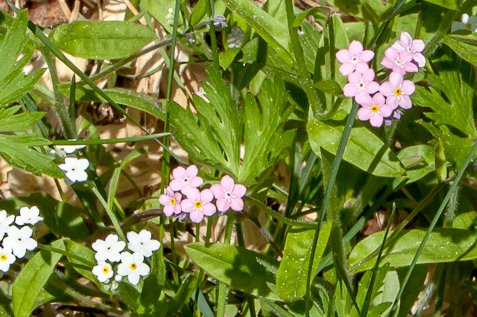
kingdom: Plantae
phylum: Tracheophyta
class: Magnoliopsida
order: Boraginales
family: Boraginaceae
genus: Myosotis
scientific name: Myosotis sylvatica
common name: Wood forget-me-not
